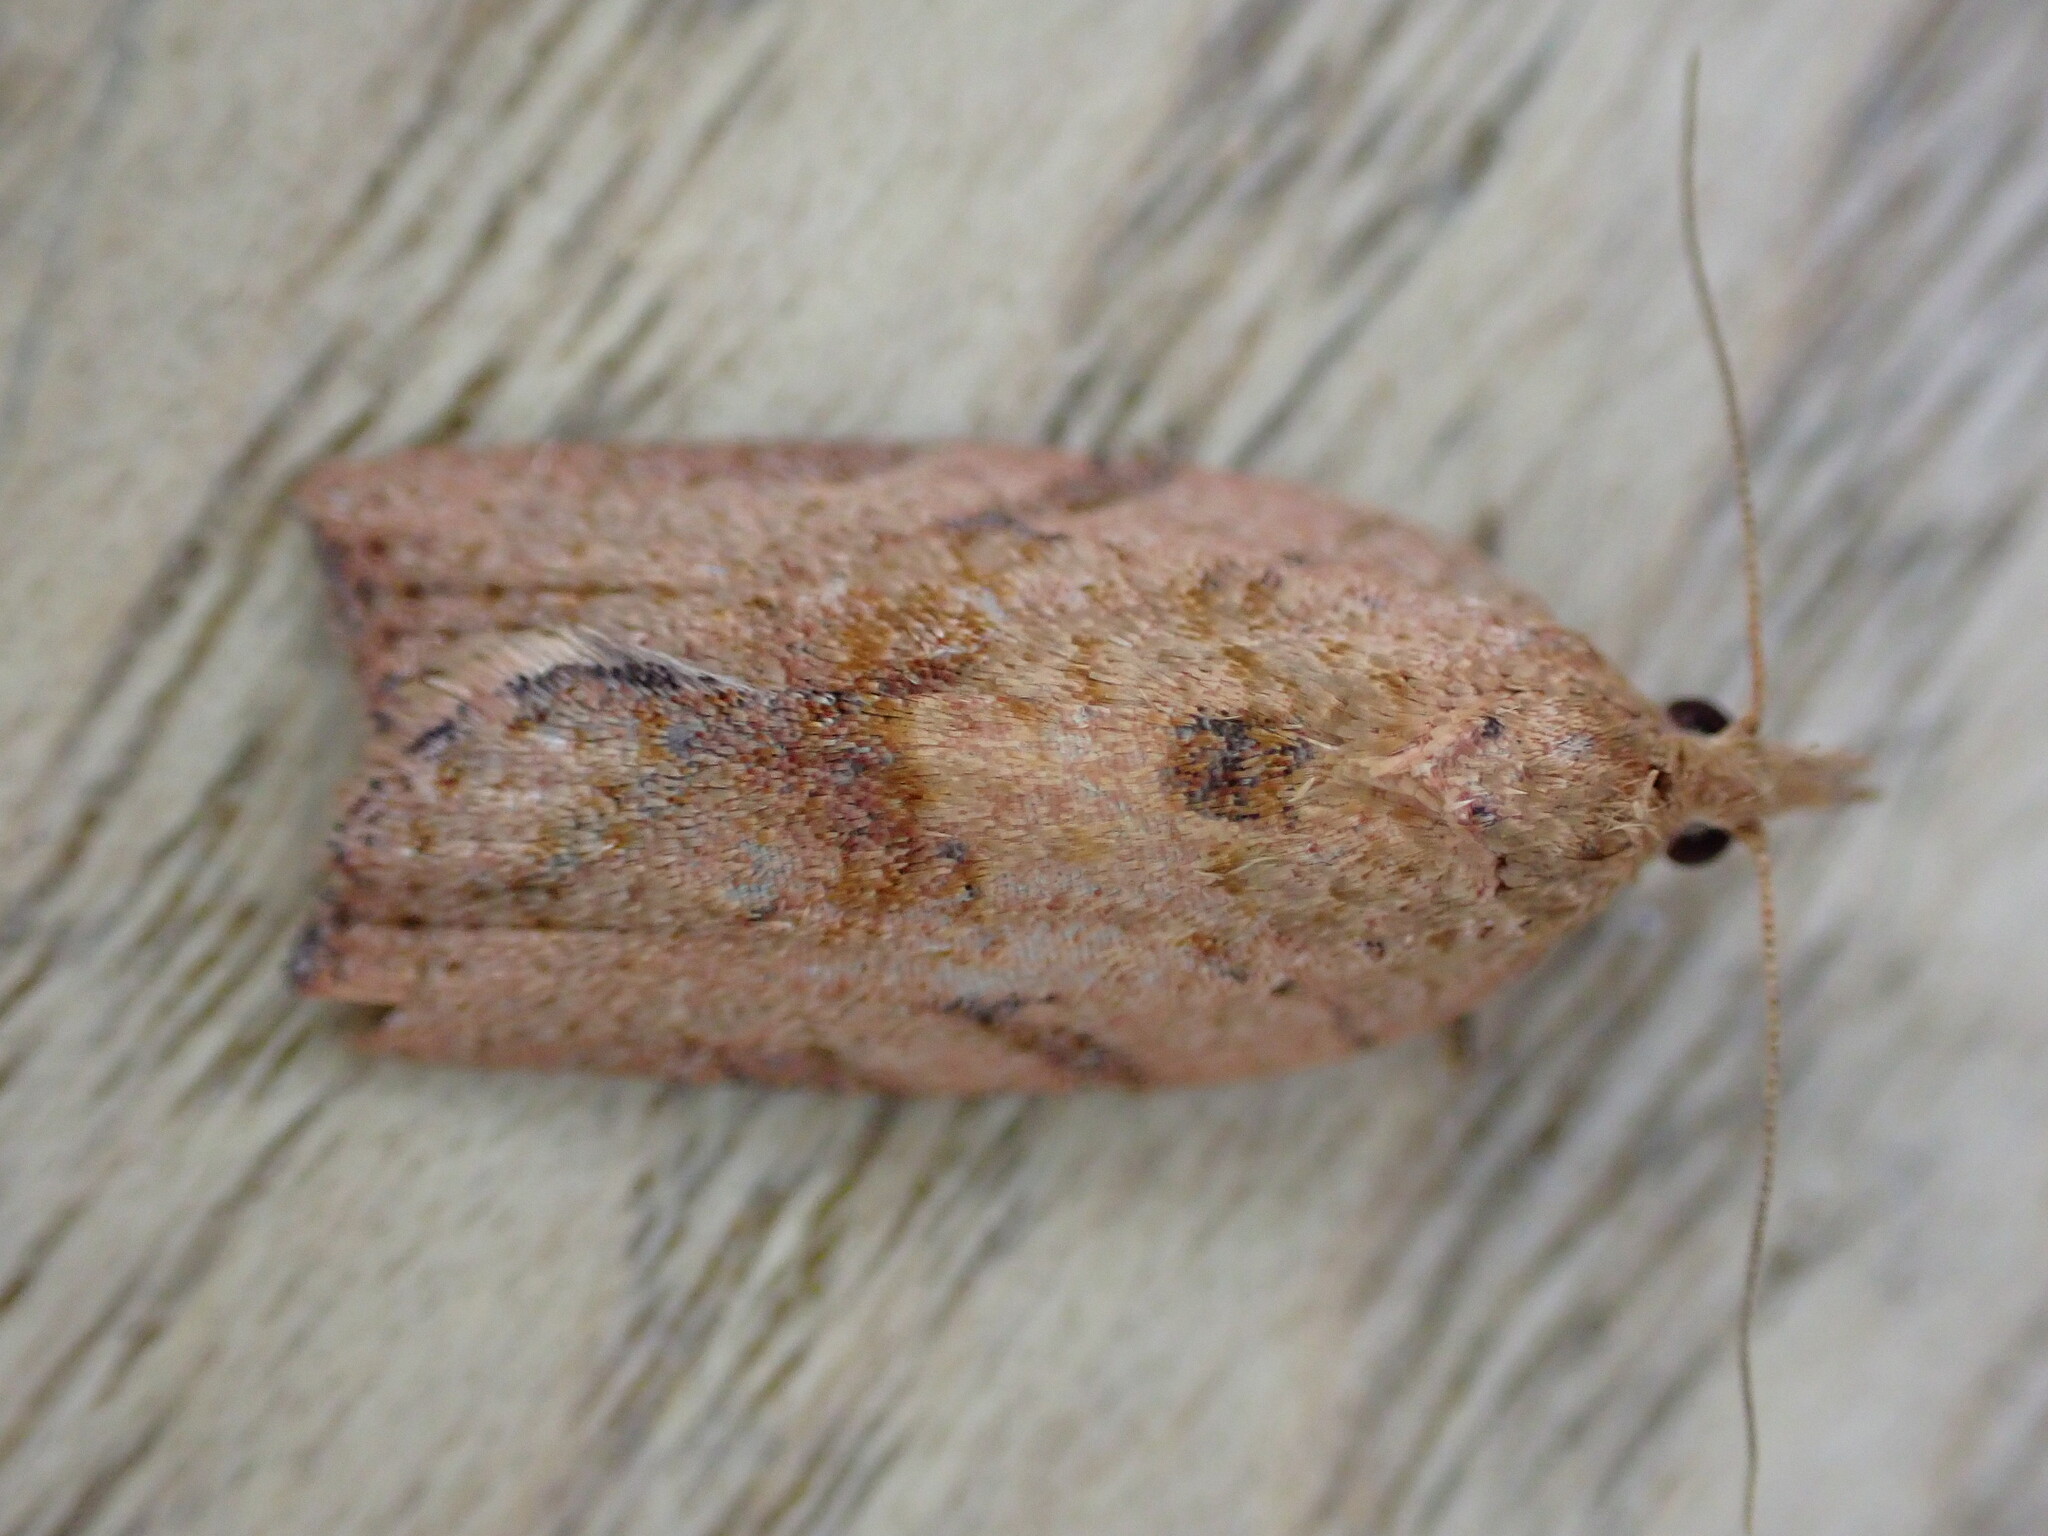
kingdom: Animalia
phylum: Arthropoda
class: Insecta
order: Lepidoptera
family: Tortricidae
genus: Epiphyas
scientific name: Epiphyas postvittana
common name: Light brown apple moth
